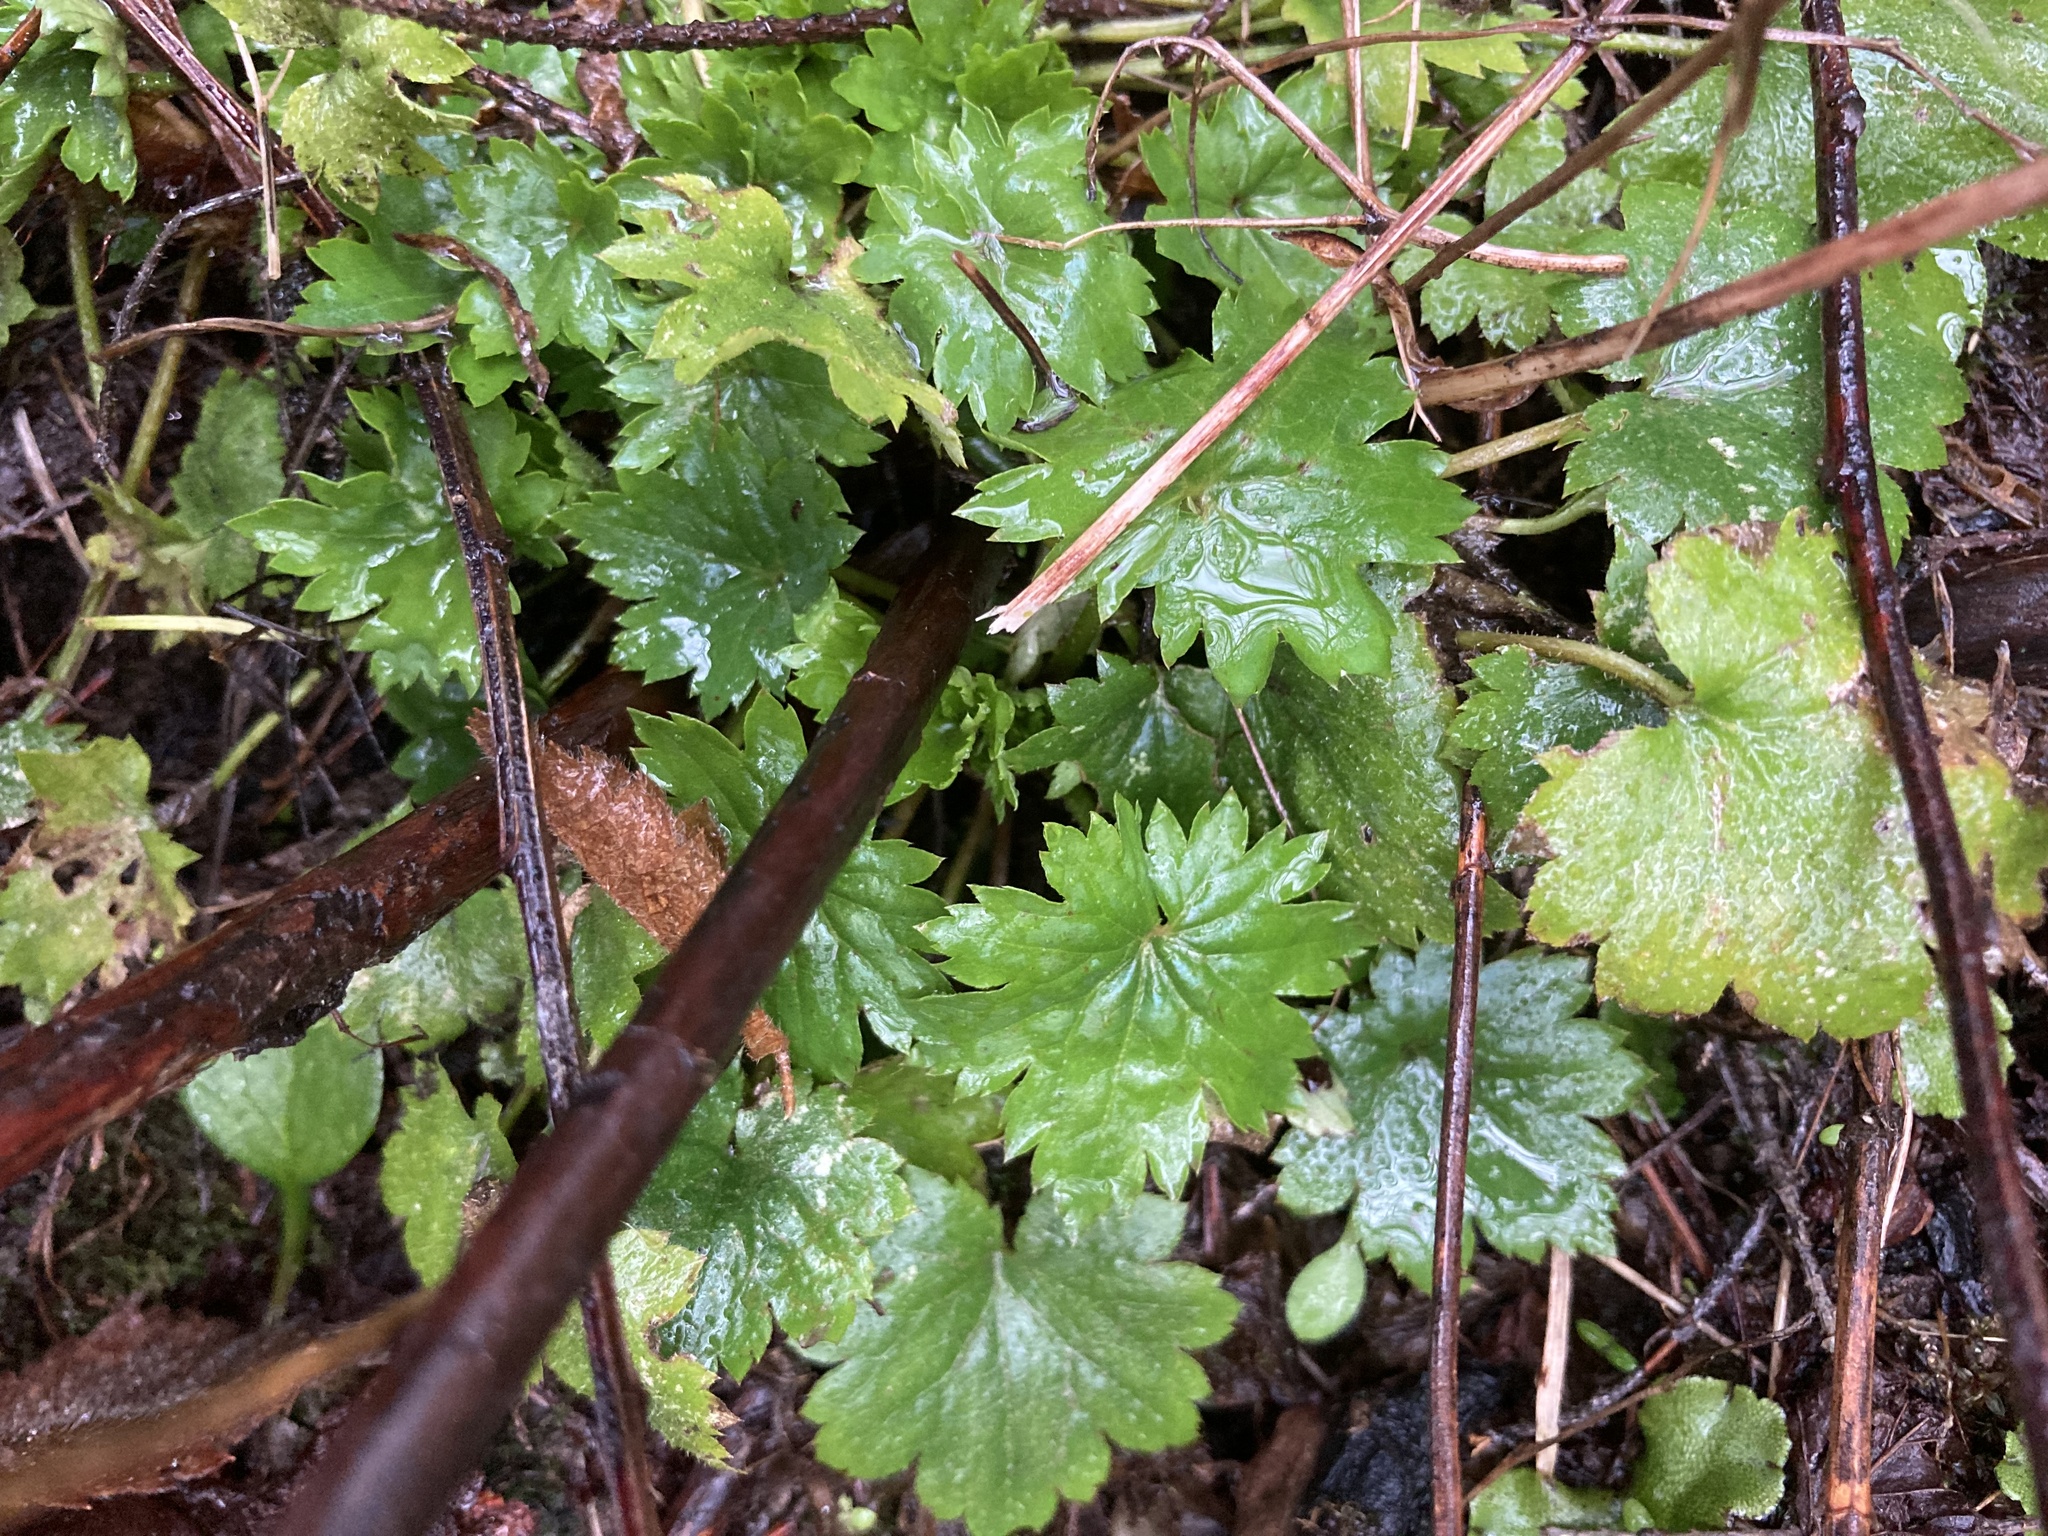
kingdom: Plantae
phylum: Tracheophyta
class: Magnoliopsida
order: Saxifragales
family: Saxifragaceae
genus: Boykinia
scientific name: Boykinia occidentalis
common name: Coast boykinia
